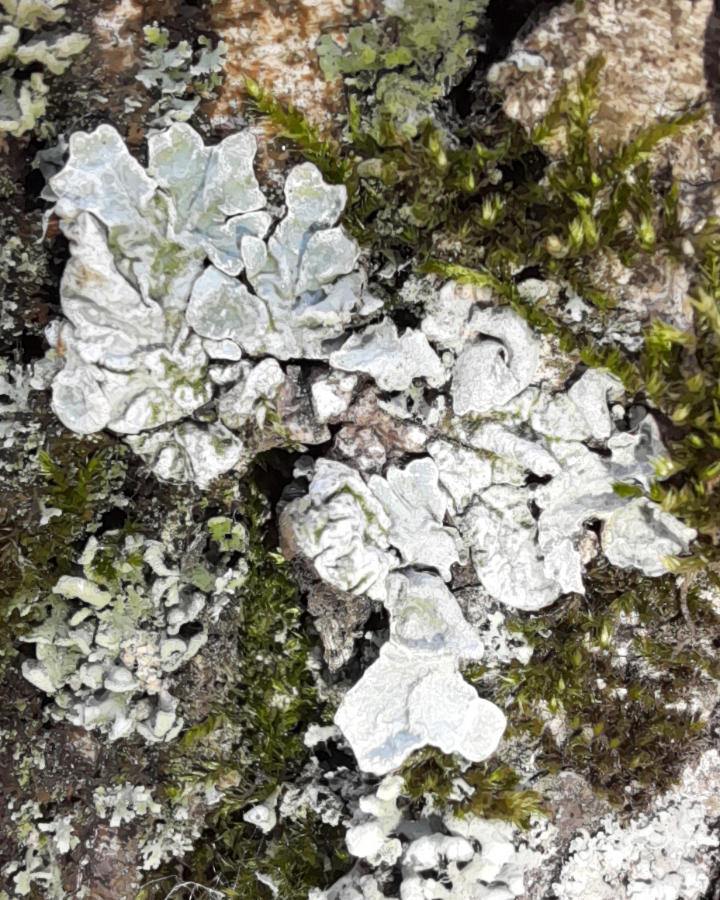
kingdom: Fungi
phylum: Ascomycota
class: Lecanoromycetes
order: Lecanorales
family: Parmeliaceae
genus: Parmelia
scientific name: Parmelia sulcata
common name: Netted shield lichen
